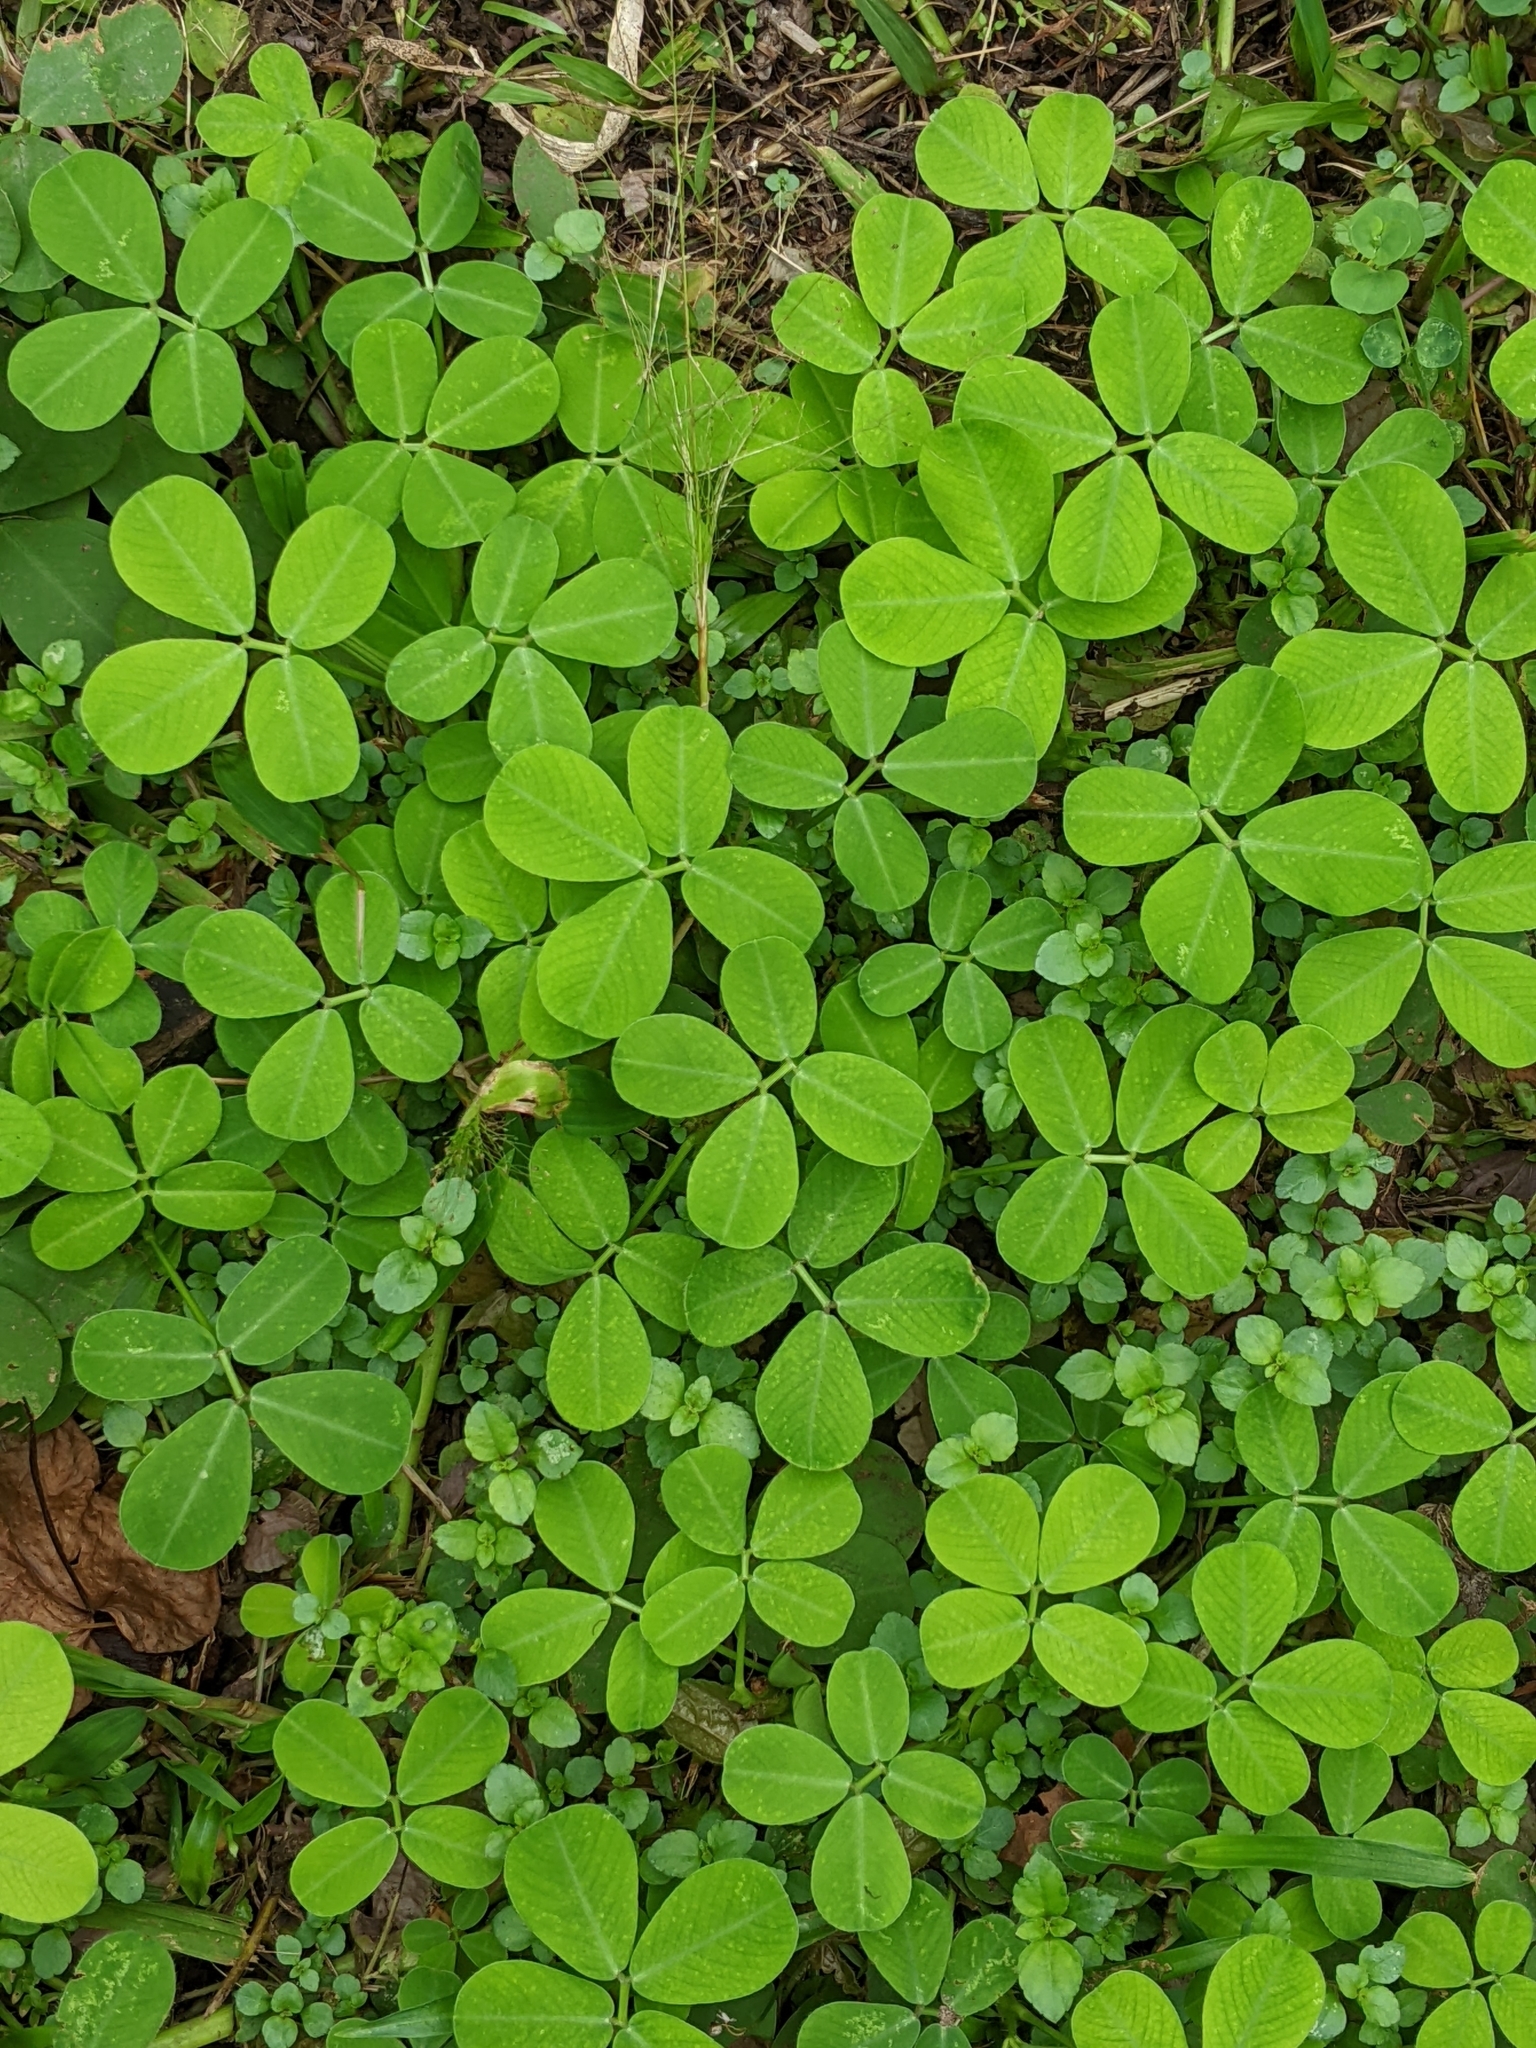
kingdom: Plantae
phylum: Tracheophyta
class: Magnoliopsida
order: Fabales
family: Fabaceae
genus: Arachis
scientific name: Arachis pintoi
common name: Pinto peanut
